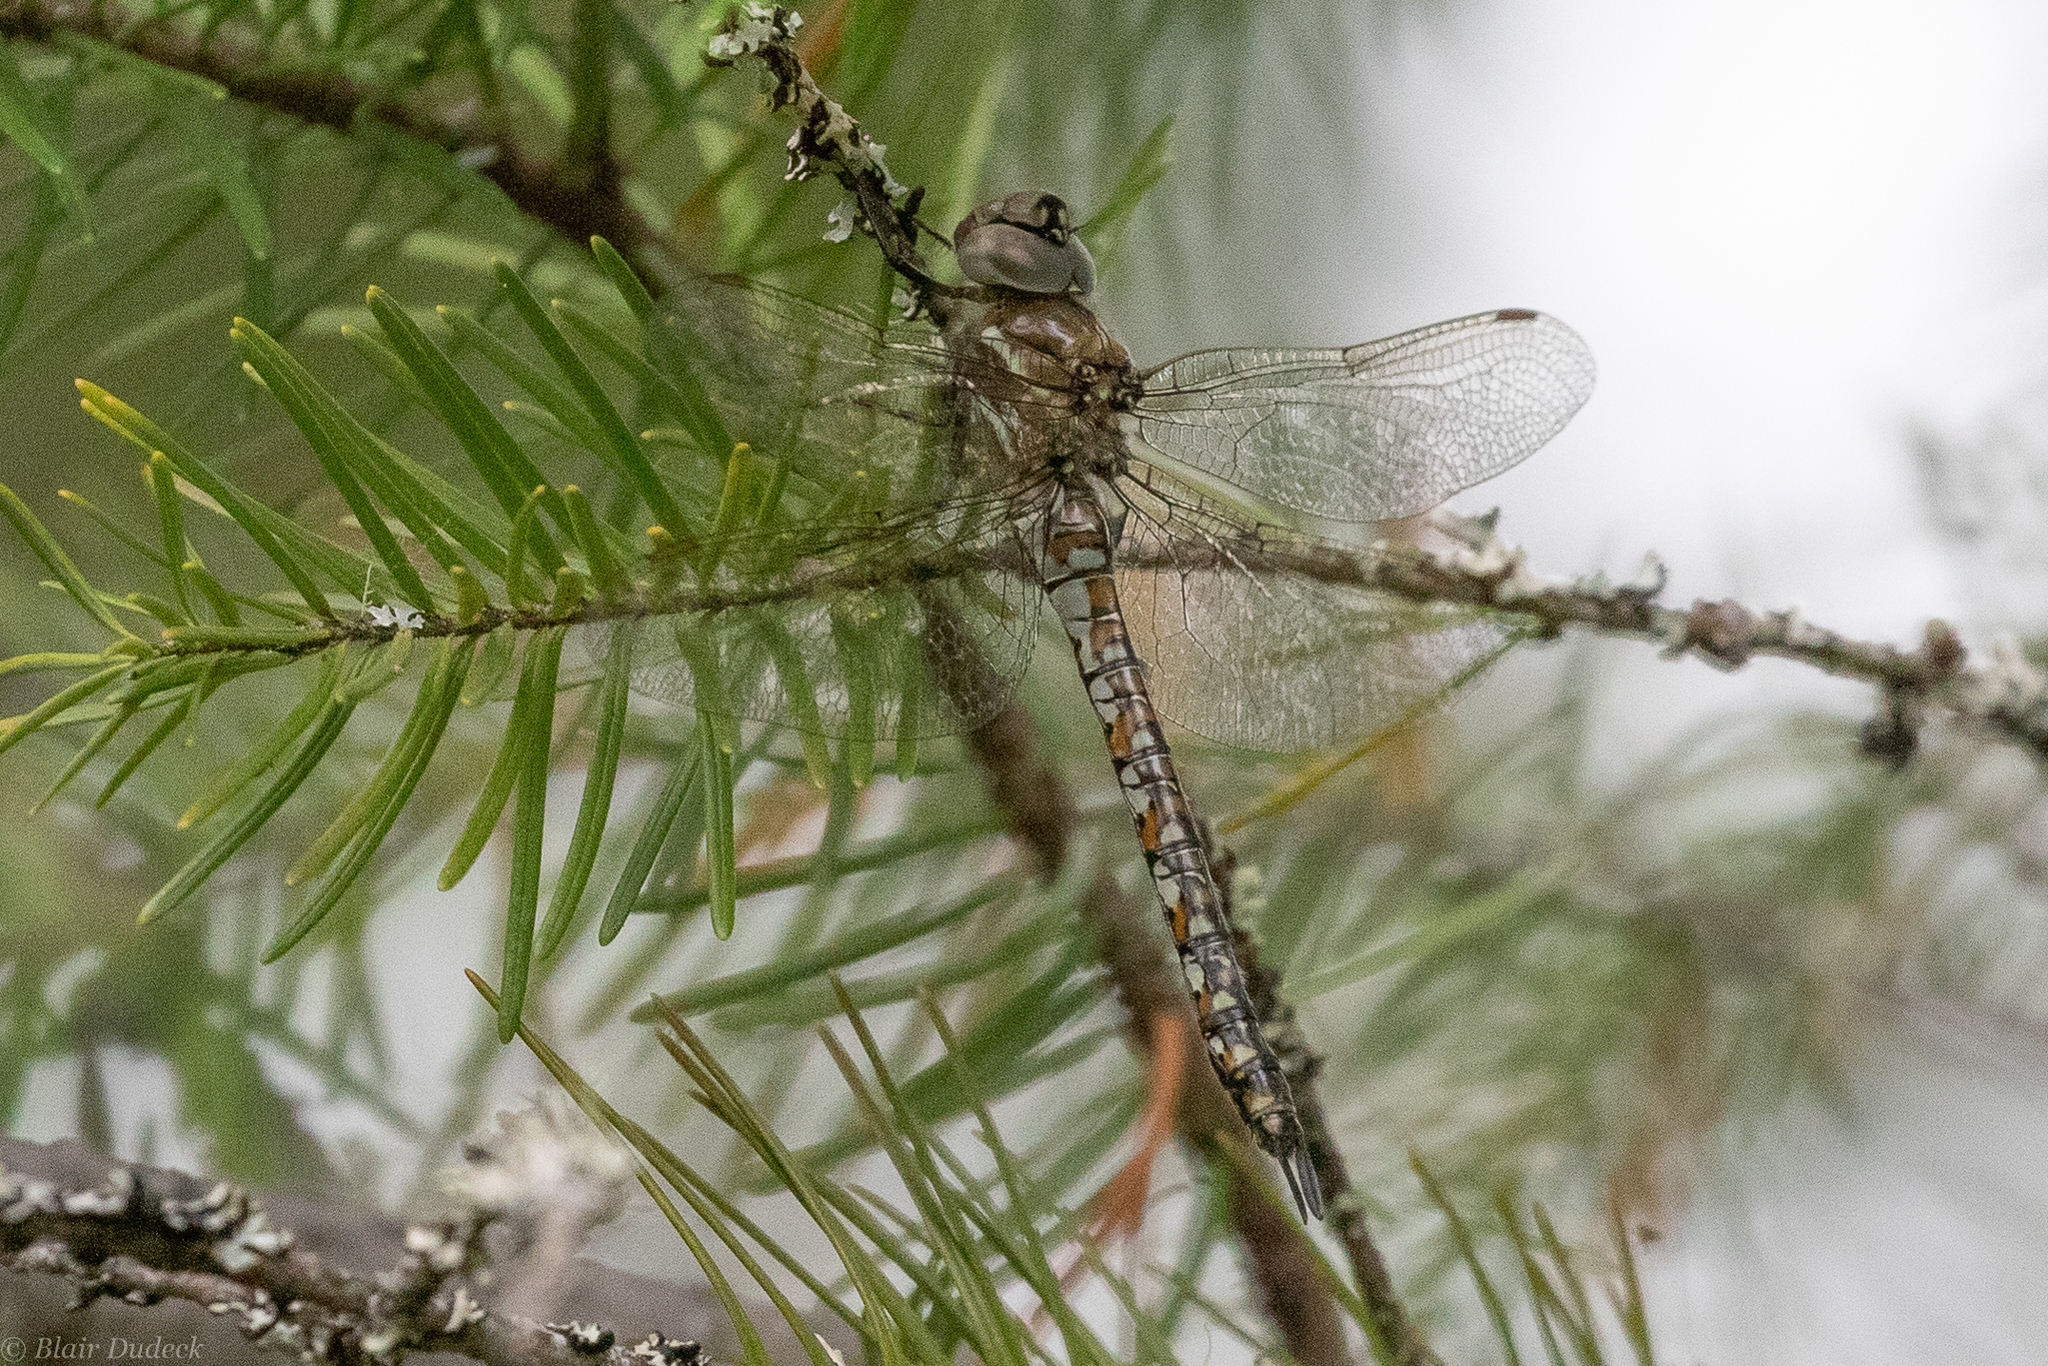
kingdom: Animalia
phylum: Arthropoda
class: Insecta
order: Odonata
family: Aeshnidae
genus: Rhionaeschna
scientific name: Rhionaeschna californica
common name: California darner
